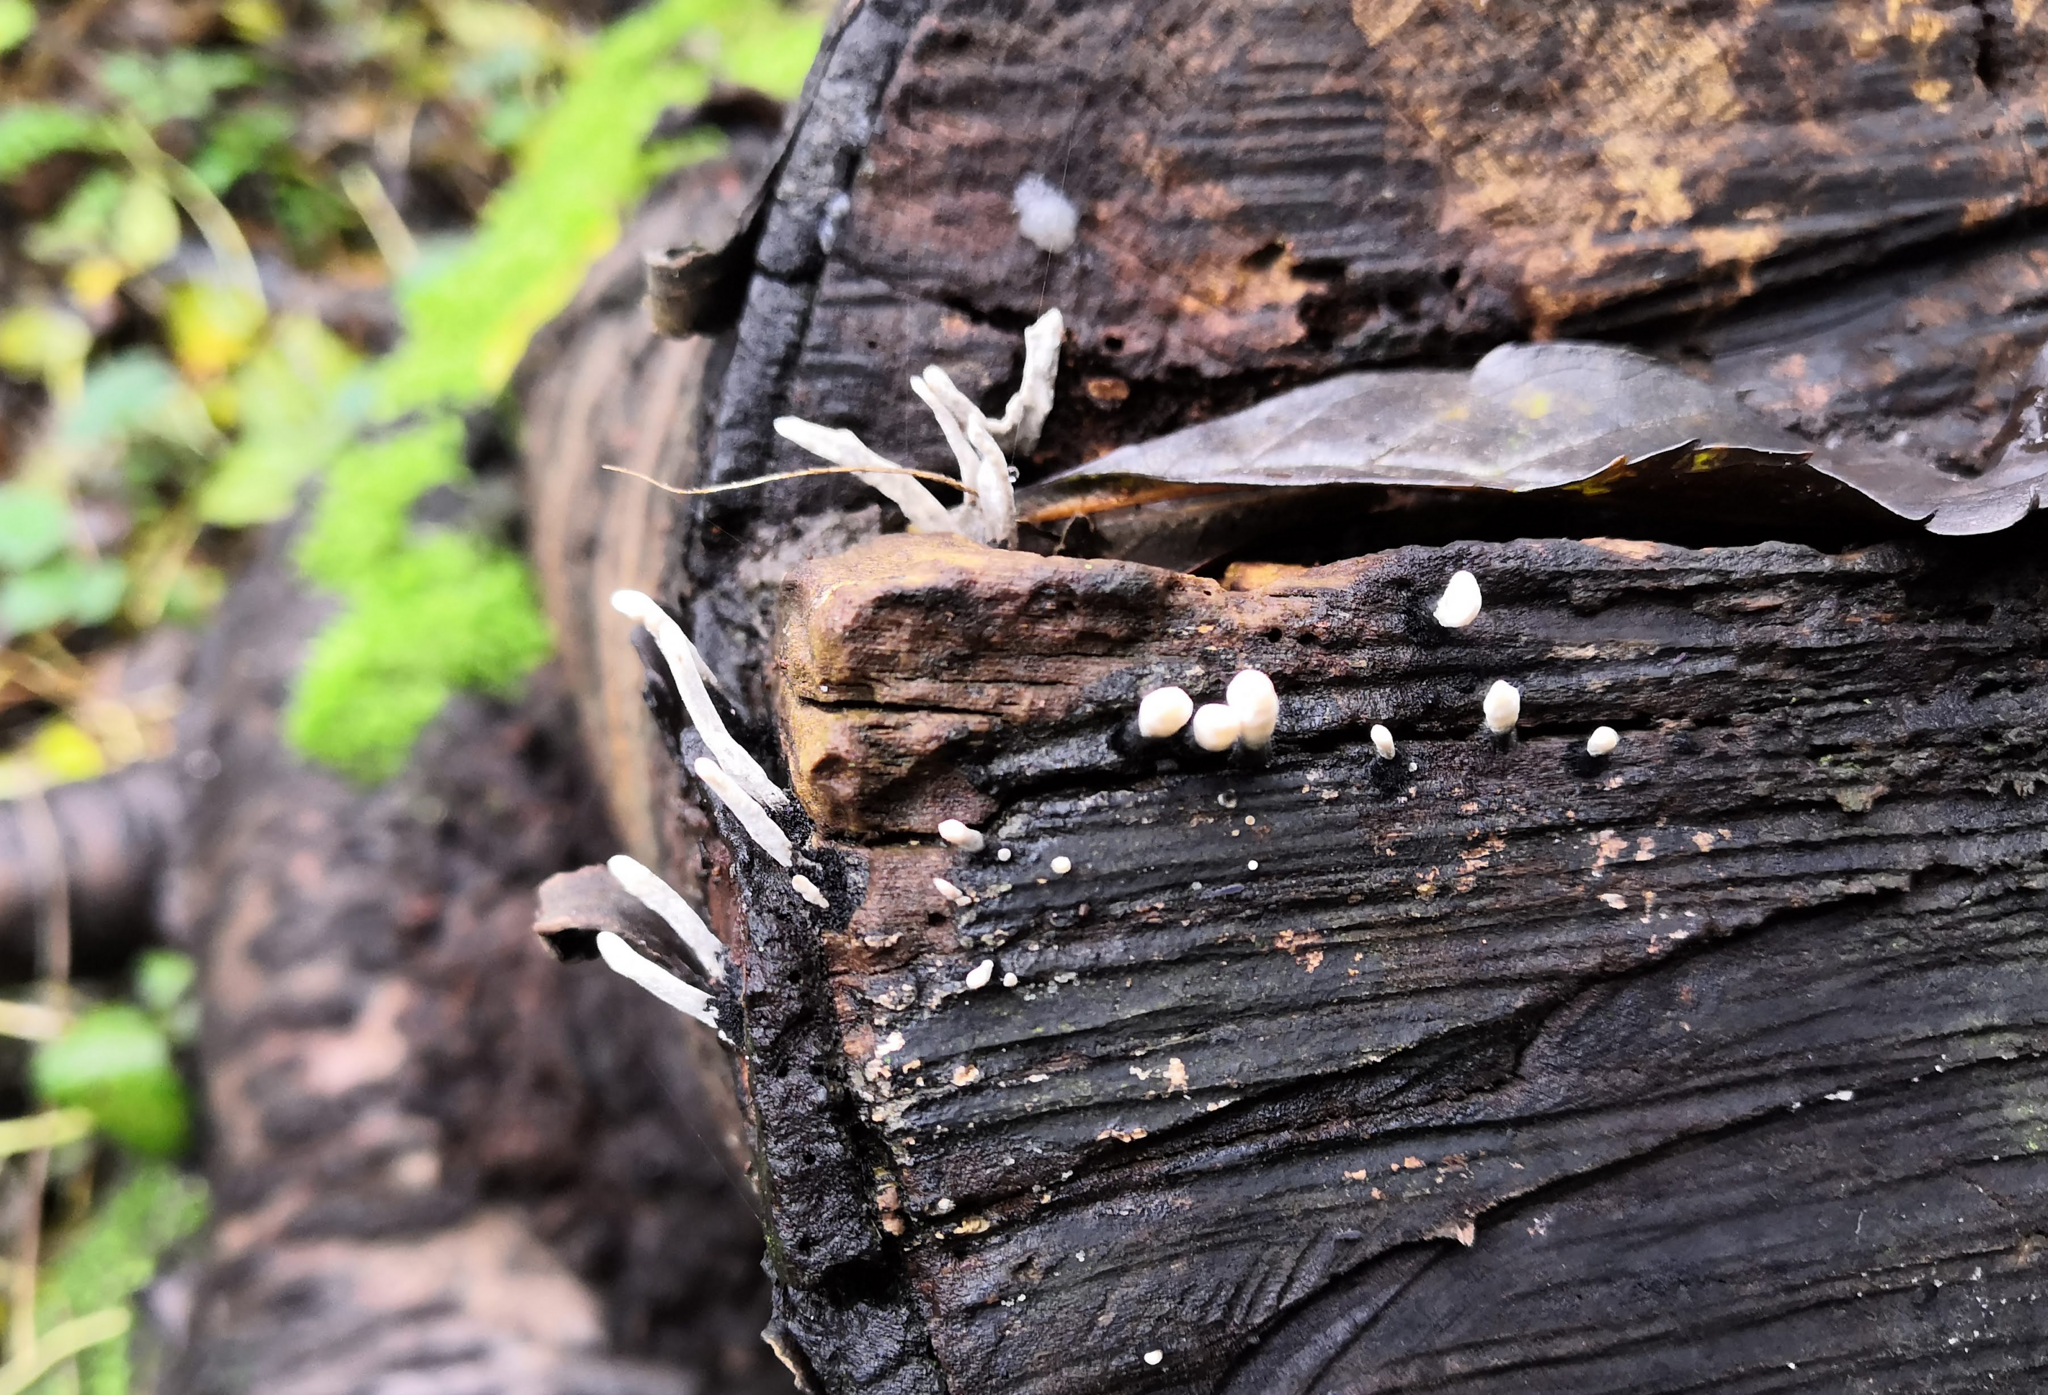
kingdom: Fungi
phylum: Ascomycota
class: Sordariomycetes
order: Xylariales
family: Xylariaceae
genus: Xylaria
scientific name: Xylaria hypoxylon
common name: Candle-snuff fungus
